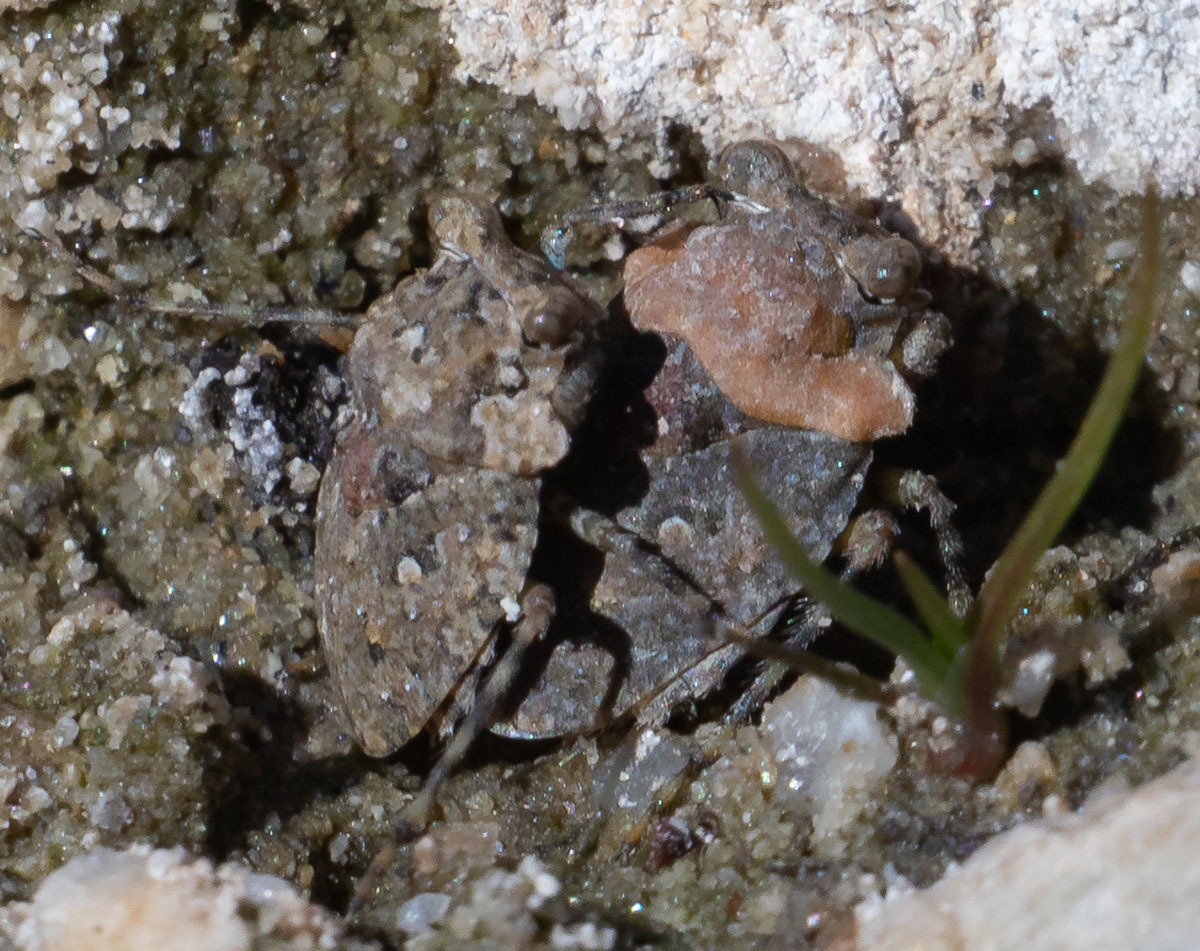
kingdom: Animalia
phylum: Arthropoda
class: Insecta
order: Hemiptera
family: Gelastocoridae
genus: Gelastocoris
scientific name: Gelastocoris oculatus
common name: Toad bug
